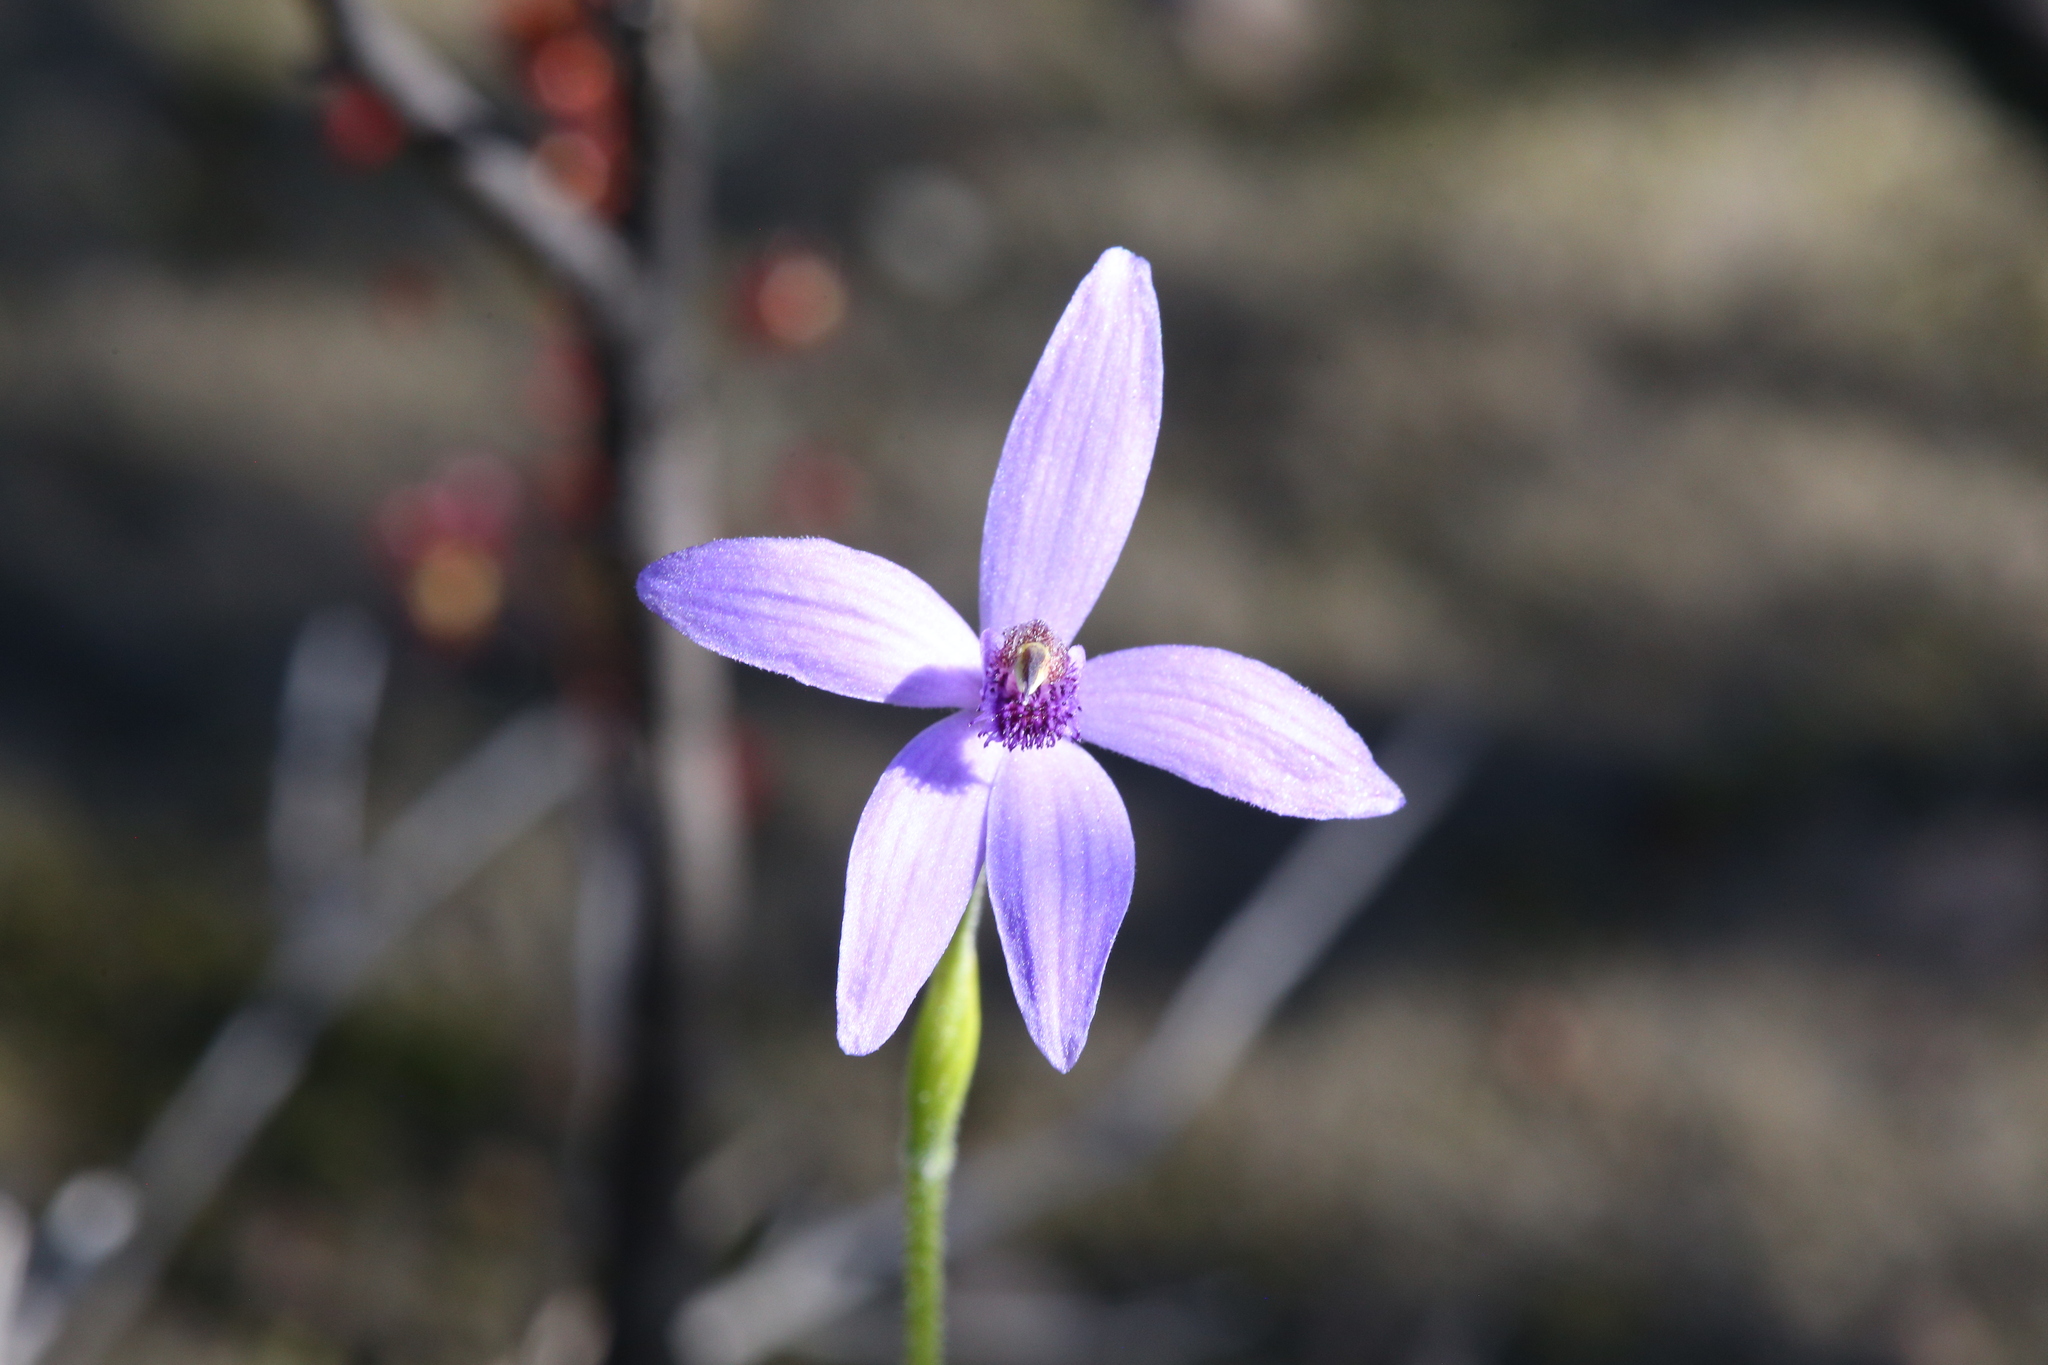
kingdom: Plantae
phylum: Tracheophyta
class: Liliopsida
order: Asparagales
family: Orchidaceae
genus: Pheladenia
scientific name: Pheladenia deformis
